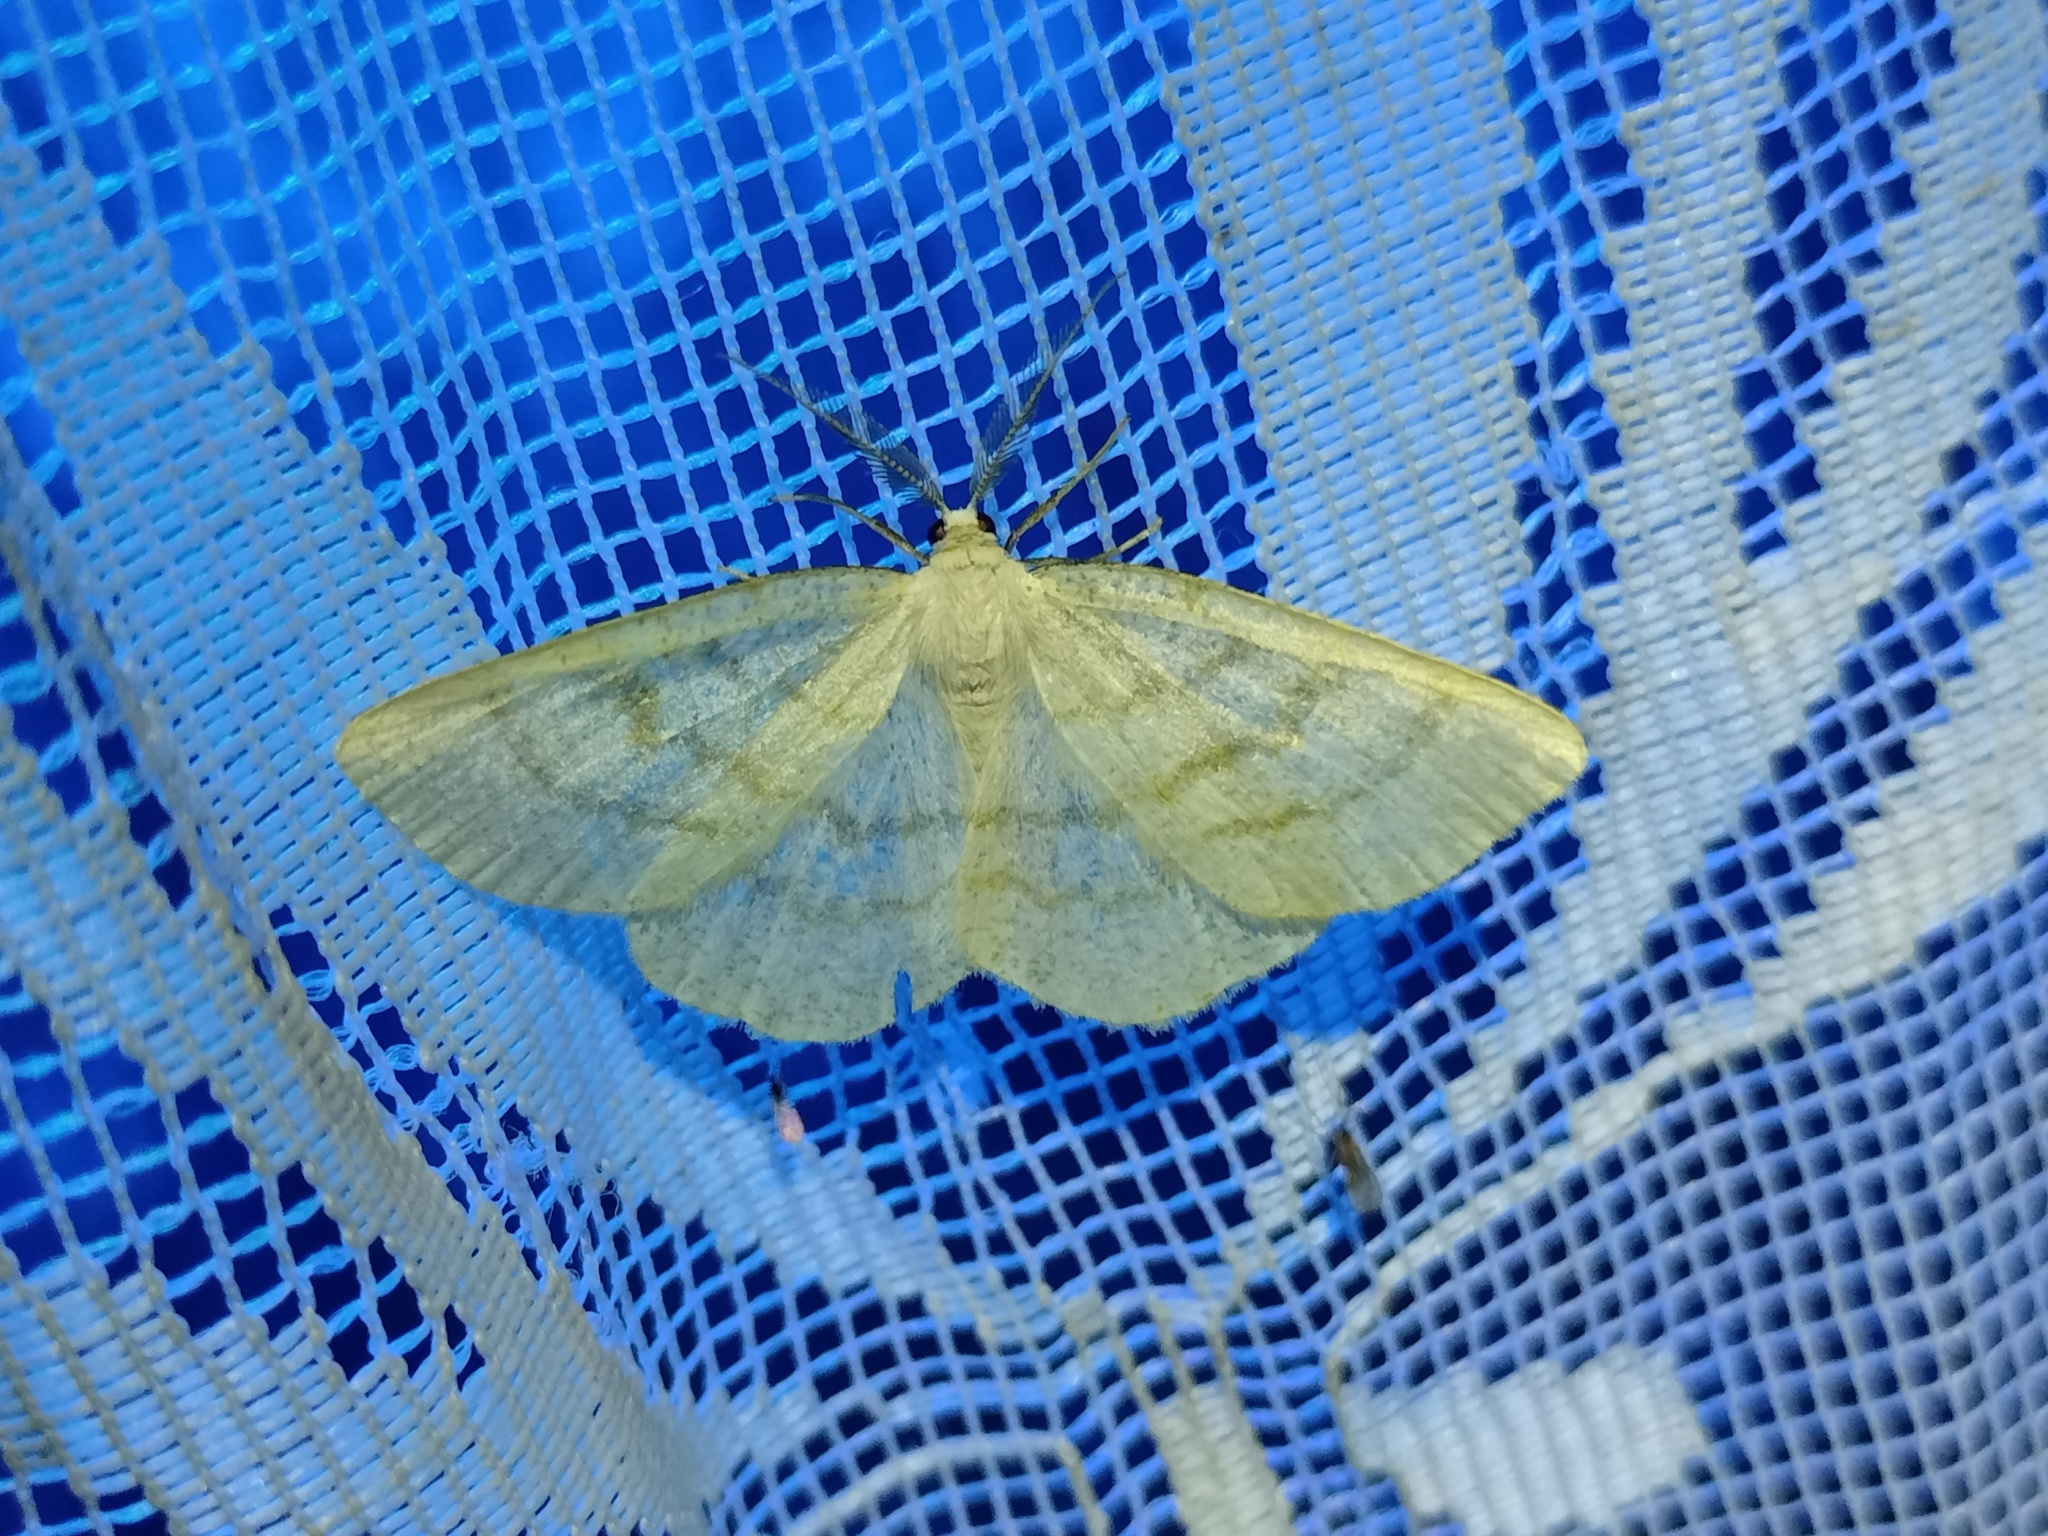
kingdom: Animalia
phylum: Arthropoda
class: Insecta
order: Lepidoptera
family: Geometridae
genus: Cabera
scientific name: Cabera exanthemata
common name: Common wave
